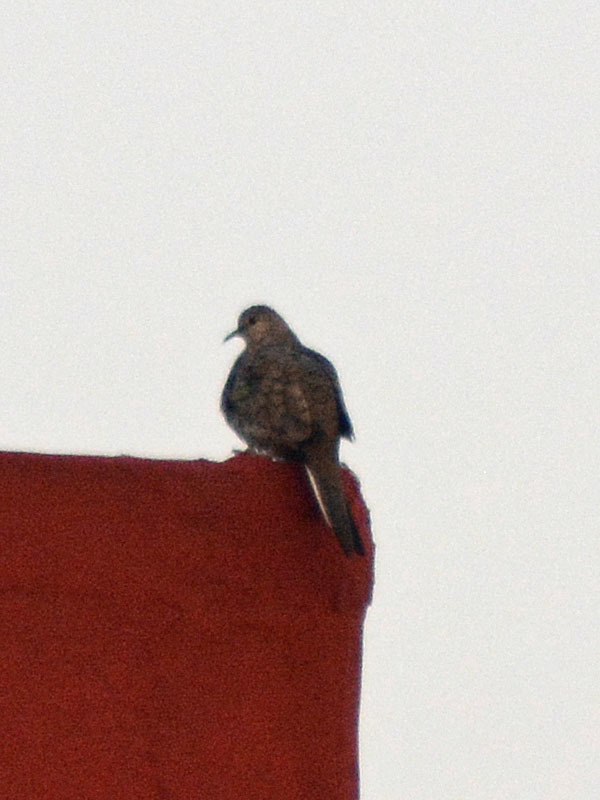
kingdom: Animalia
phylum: Chordata
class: Aves
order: Columbiformes
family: Columbidae
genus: Columbina
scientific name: Columbina inca
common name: Inca dove
